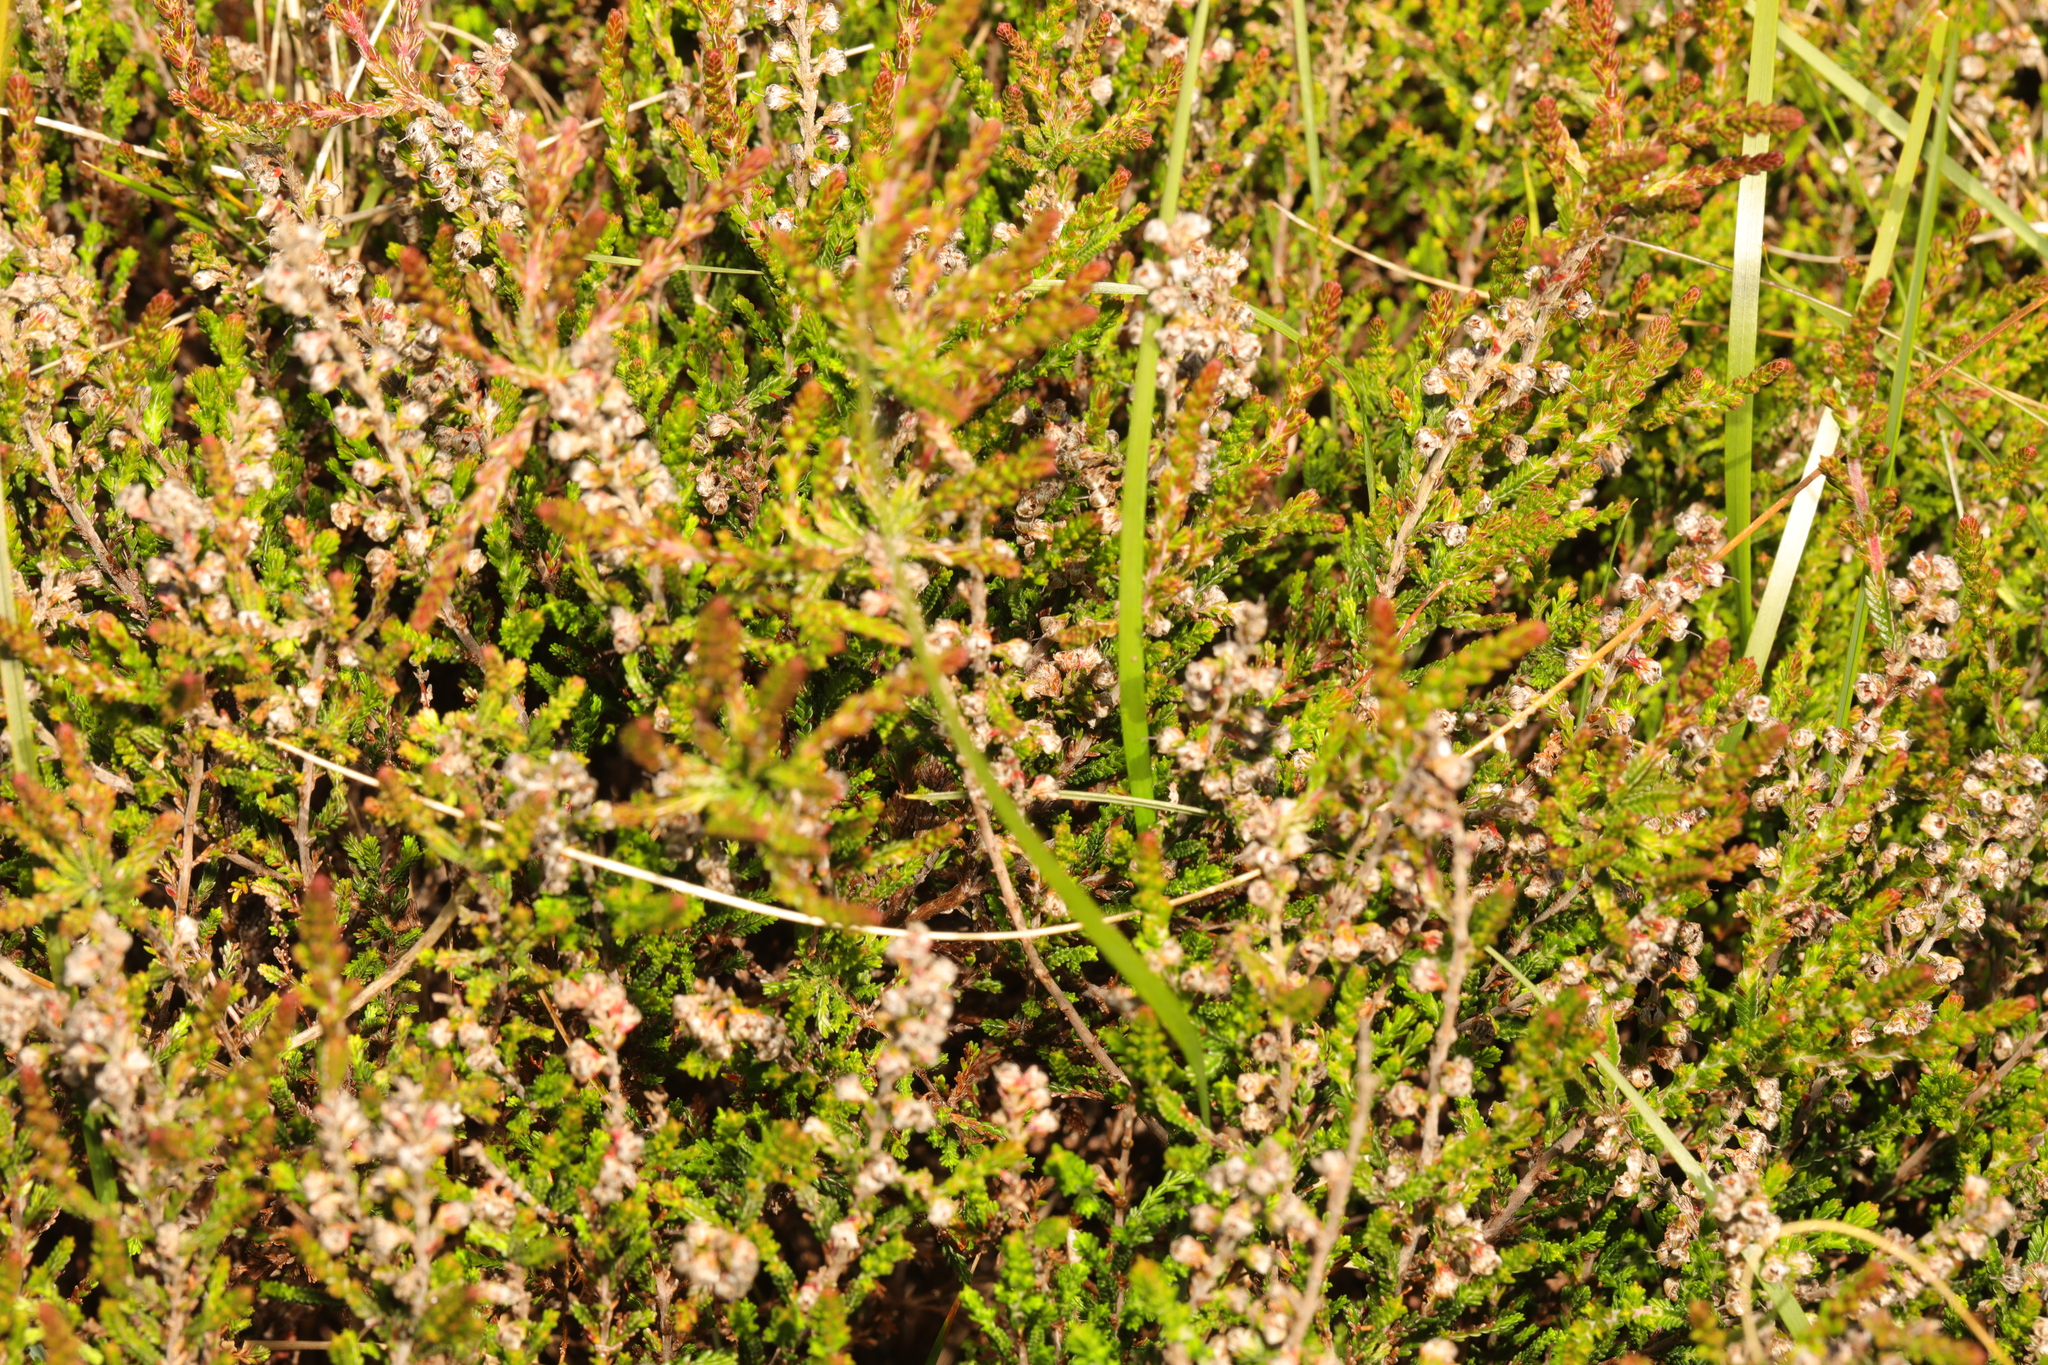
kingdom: Plantae
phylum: Tracheophyta
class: Magnoliopsida
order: Ericales
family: Ericaceae
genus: Calluna
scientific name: Calluna vulgaris
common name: Heather
